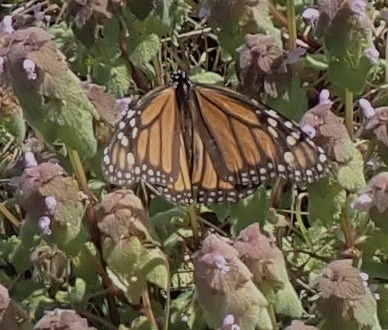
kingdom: Animalia
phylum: Arthropoda
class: Insecta
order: Lepidoptera
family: Nymphalidae
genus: Danaus
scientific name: Danaus plexippus
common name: Monarch
